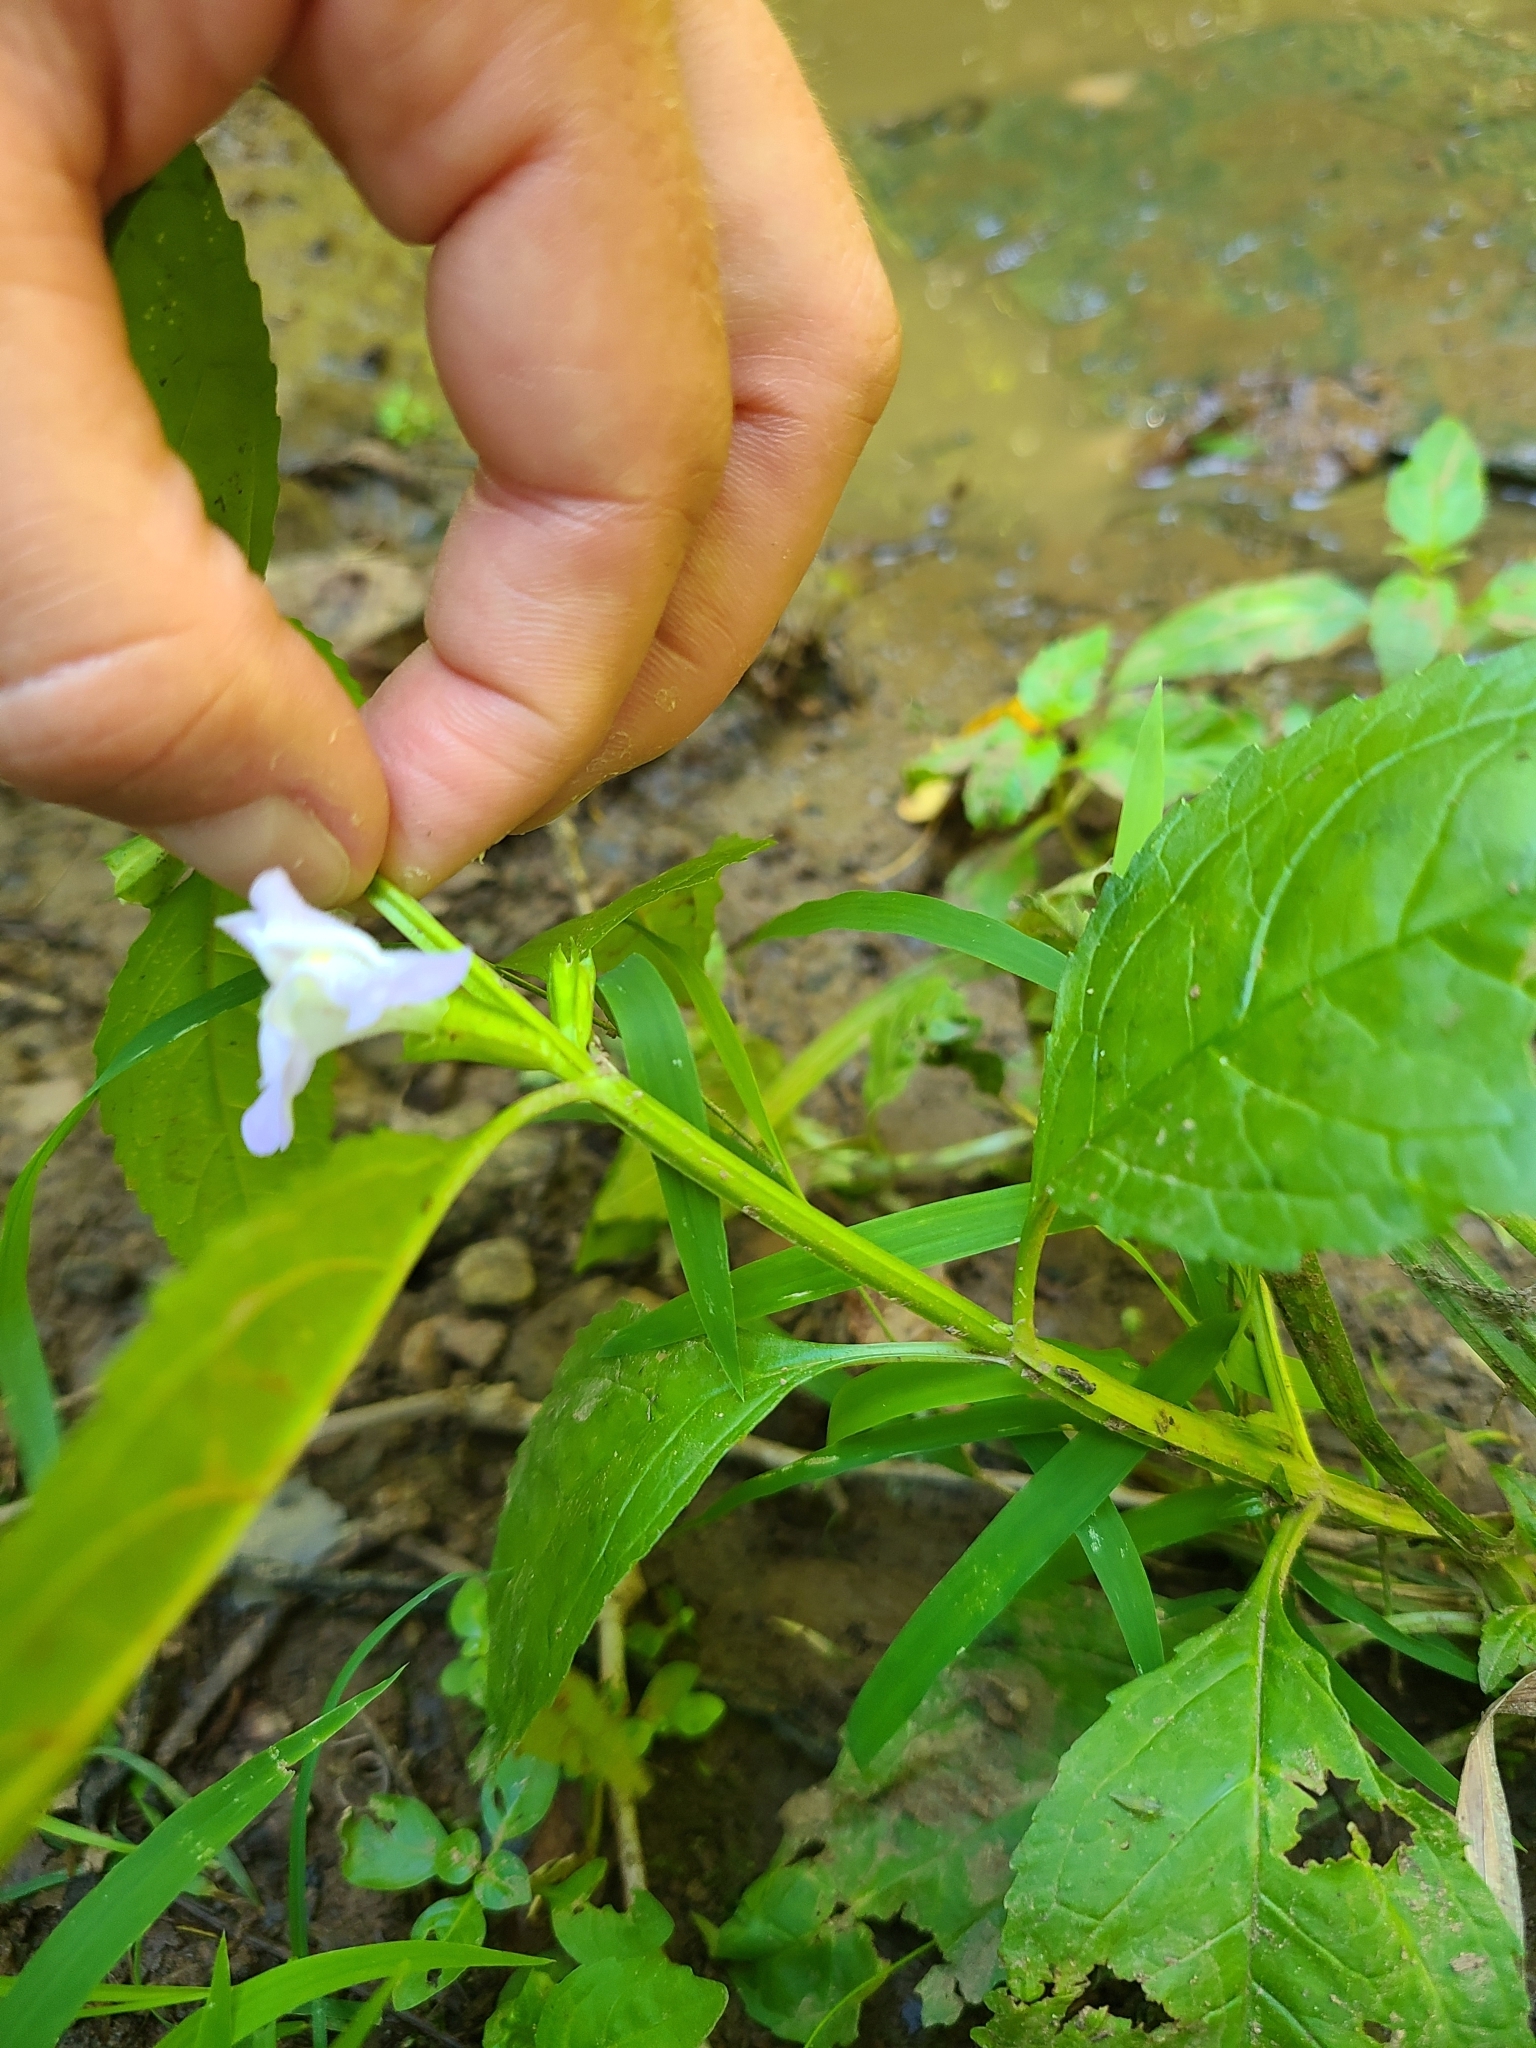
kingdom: Plantae
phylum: Tracheophyta
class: Magnoliopsida
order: Lamiales
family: Phrymaceae
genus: Mimulus
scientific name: Mimulus alatus
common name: Sharp-wing monkey-flower
